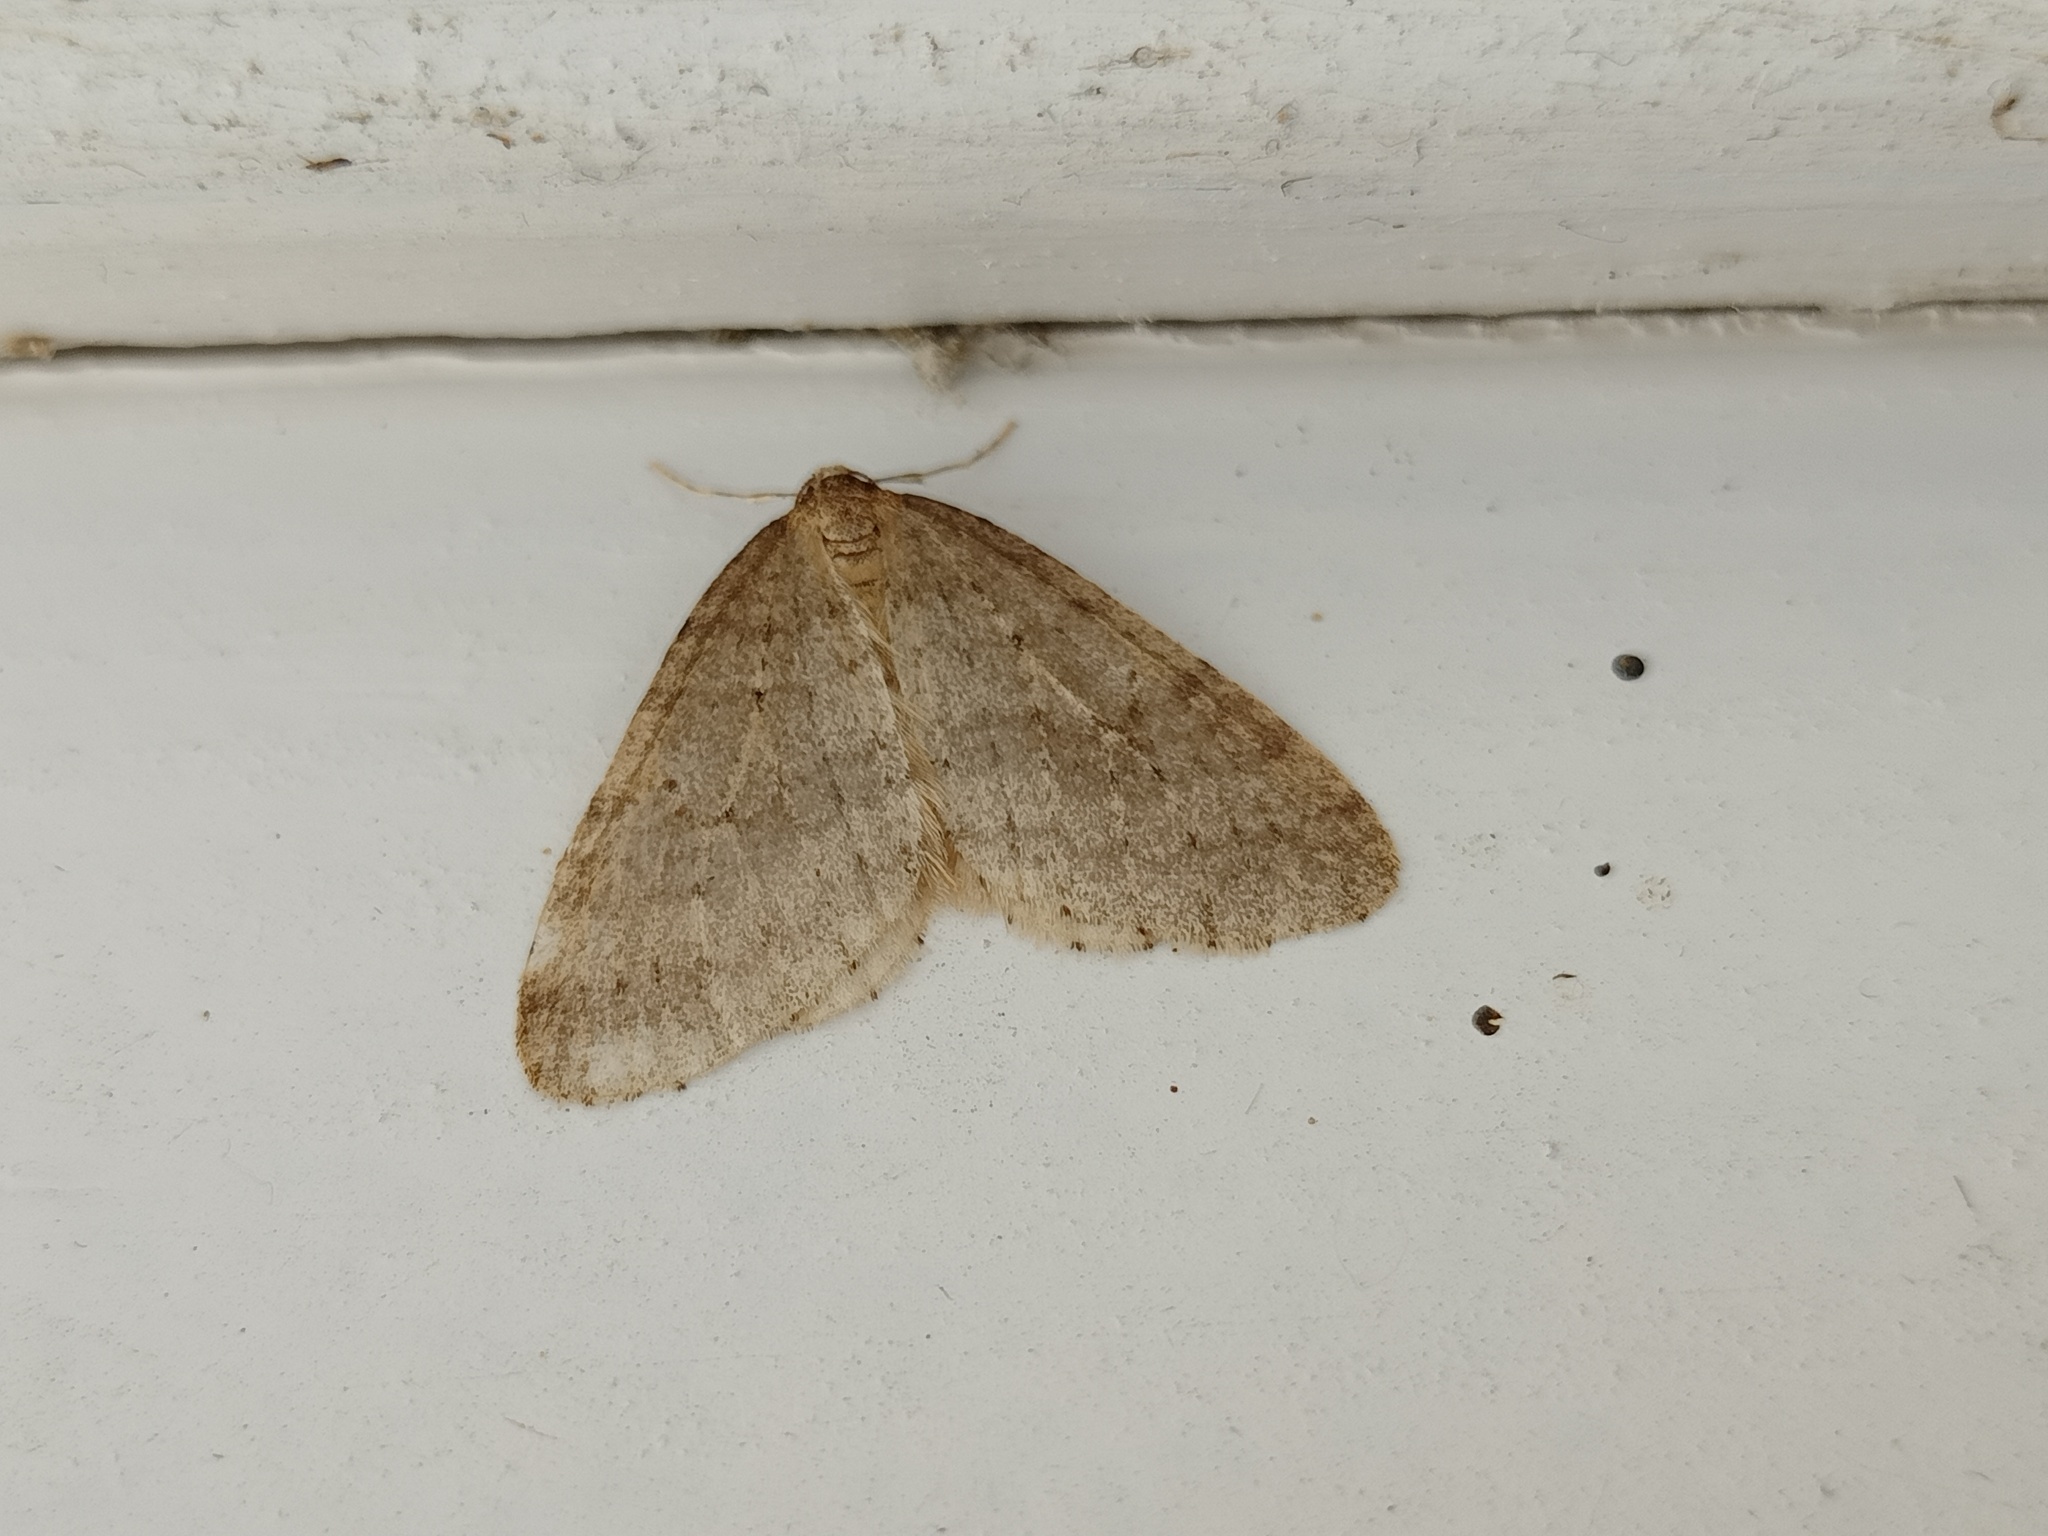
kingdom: Animalia
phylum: Arthropoda
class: Insecta
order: Lepidoptera
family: Geometridae
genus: Operophtera
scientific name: Operophtera brumata
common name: Winter moth
